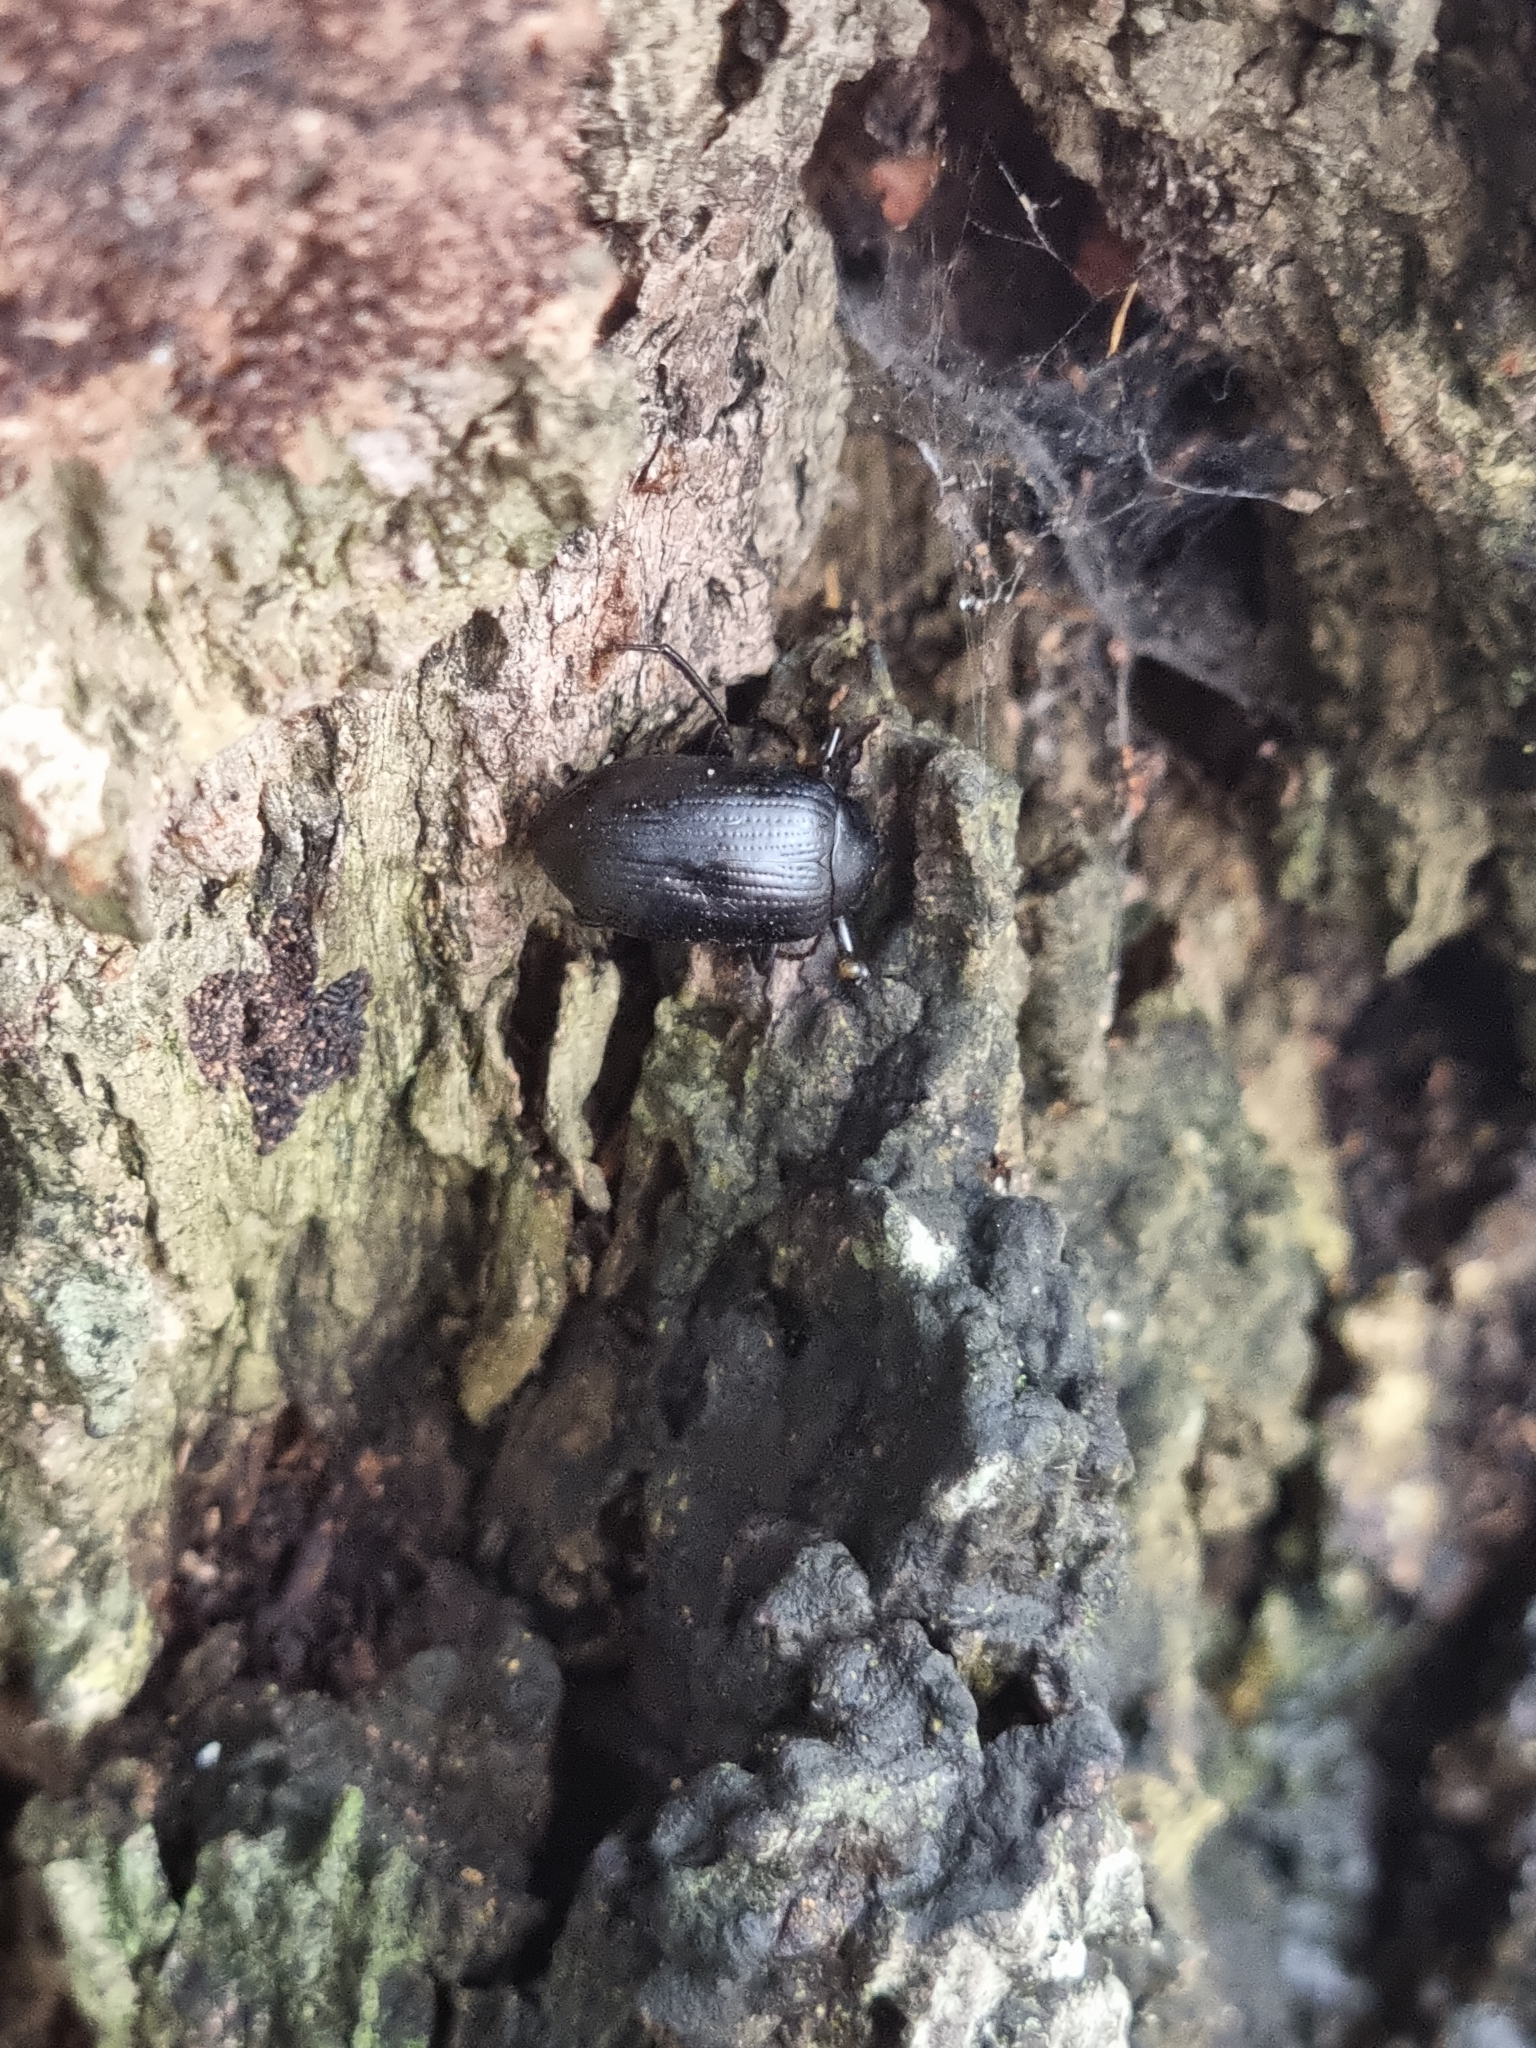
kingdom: Animalia
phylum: Arthropoda
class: Insecta
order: Coleoptera
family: Tenebrionidae
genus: Amarygmus
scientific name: Amarygmus
